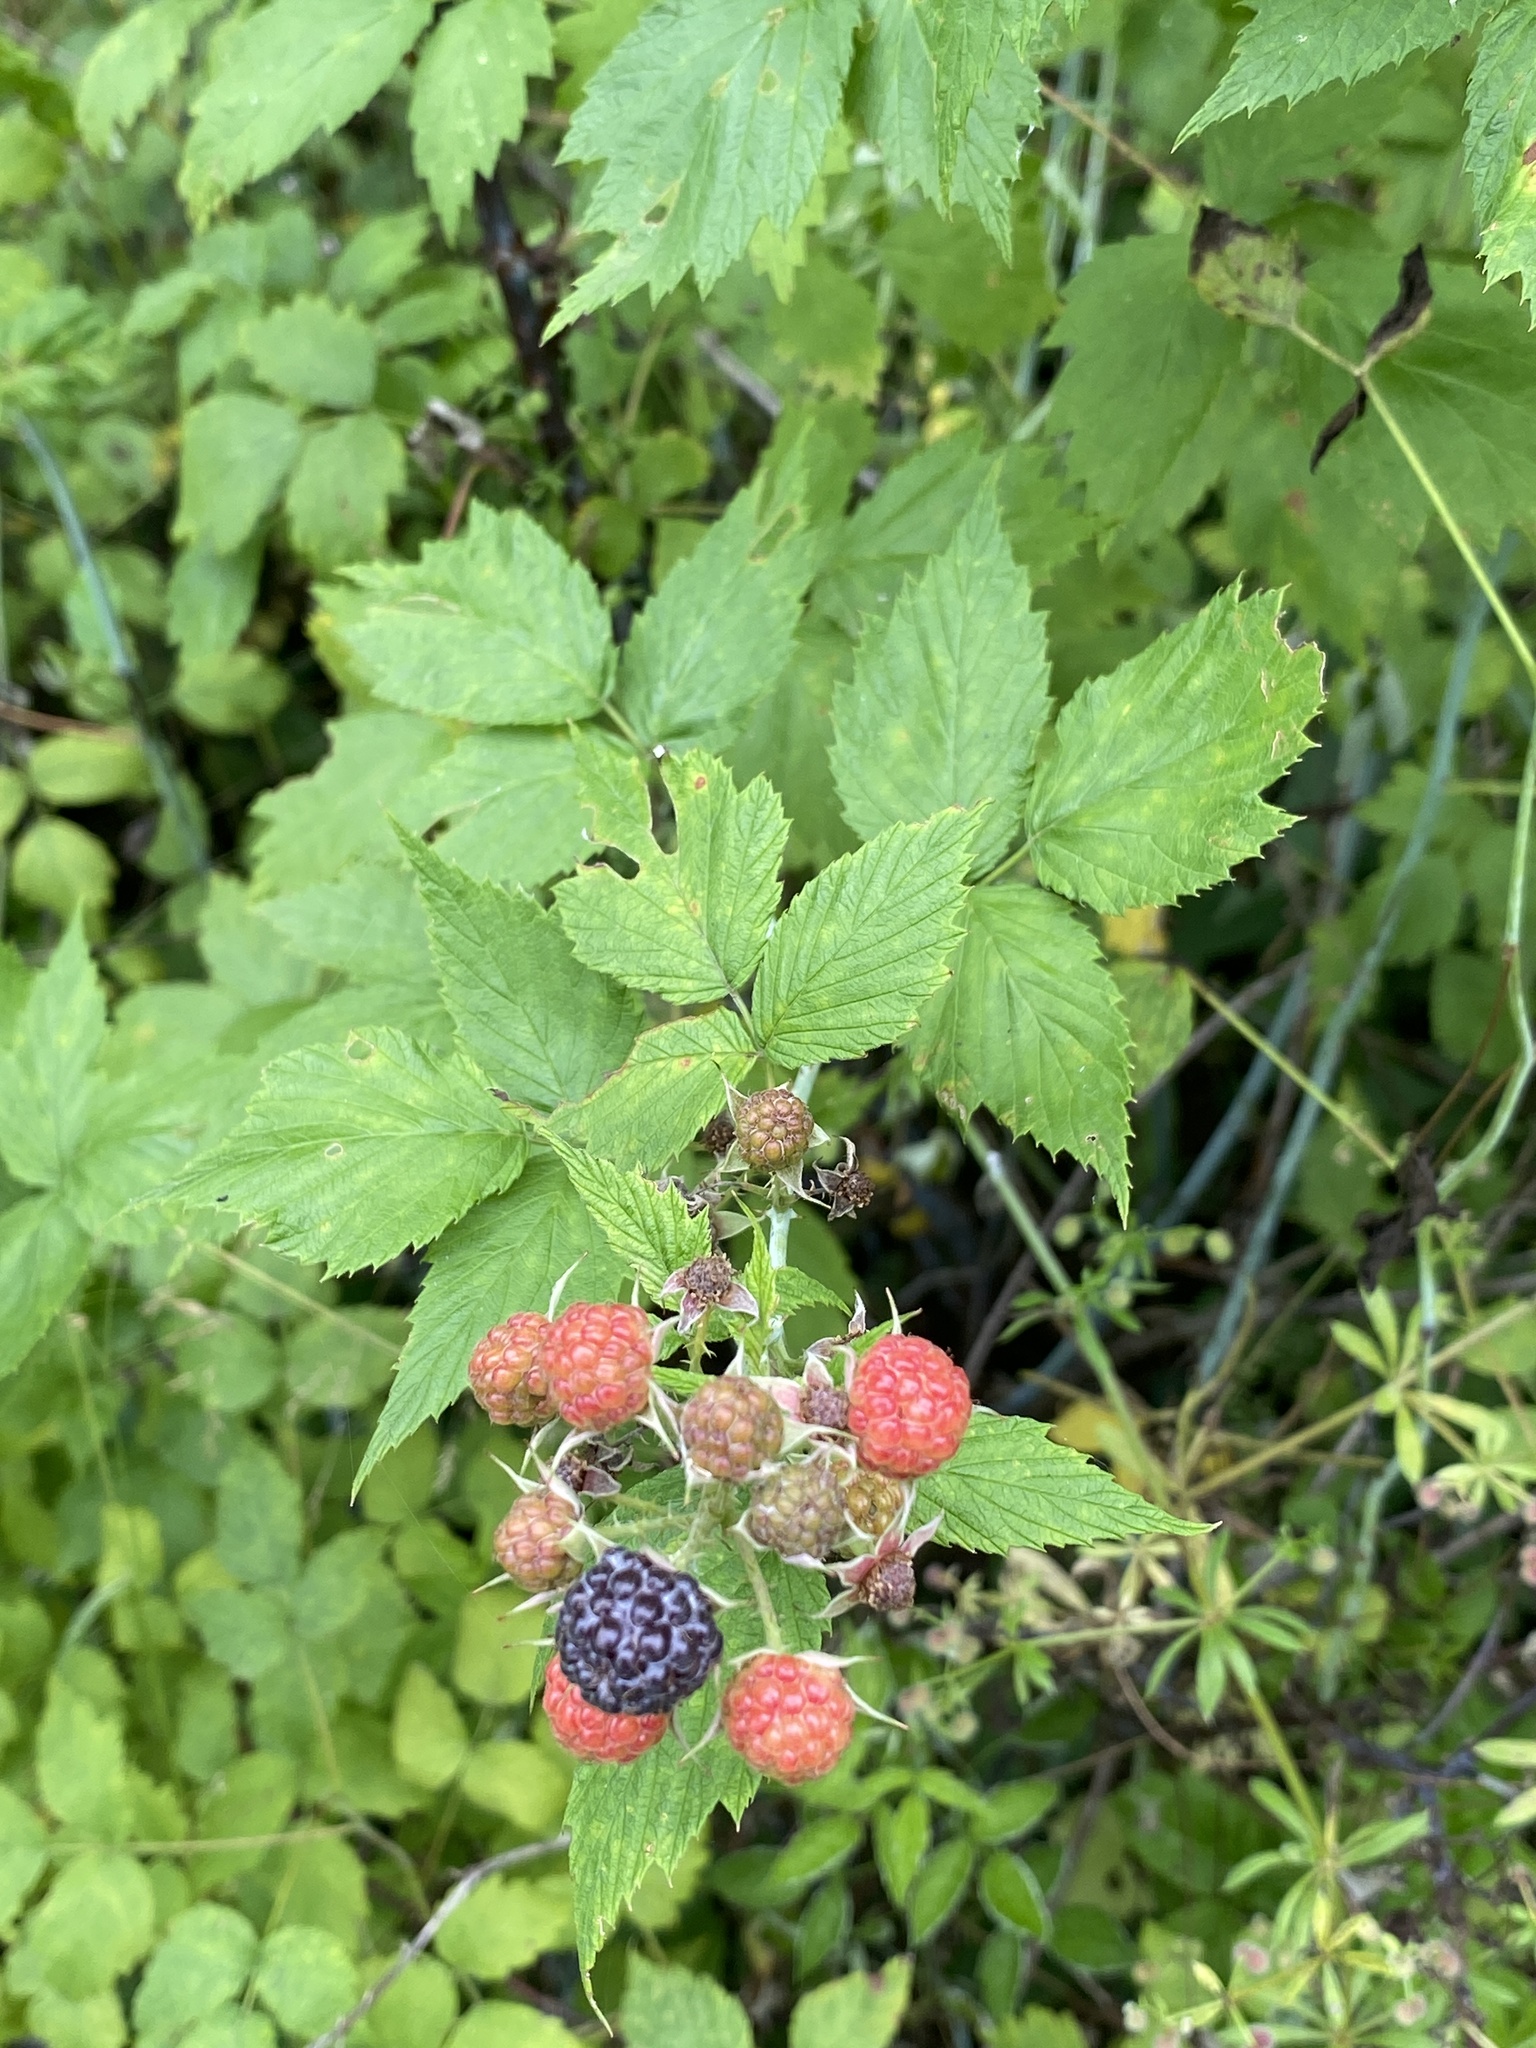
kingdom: Plantae
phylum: Tracheophyta
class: Magnoliopsida
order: Rosales
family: Rosaceae
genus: Rubus
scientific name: Rubus occidentalis
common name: Black raspberry
